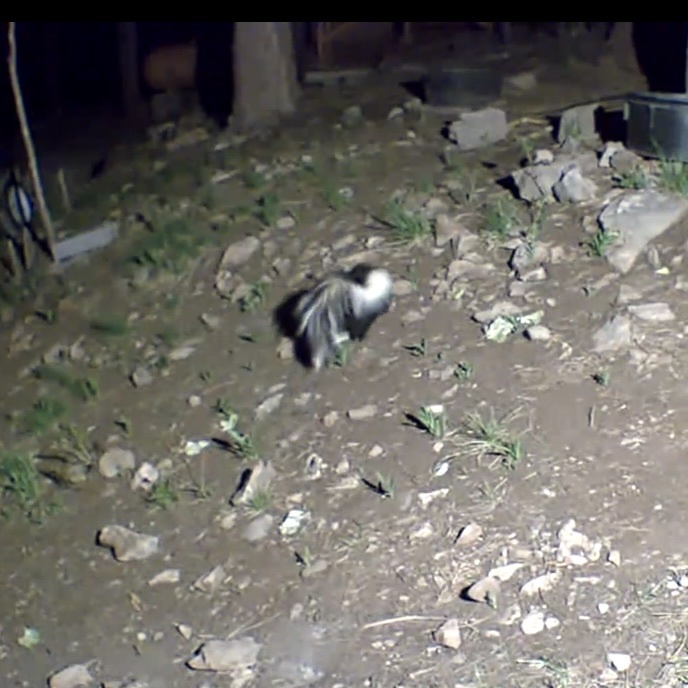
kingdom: Animalia
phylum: Chordata
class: Mammalia
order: Carnivora
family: Mephitidae
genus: Mephitis
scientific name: Mephitis mephitis
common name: Striped skunk
